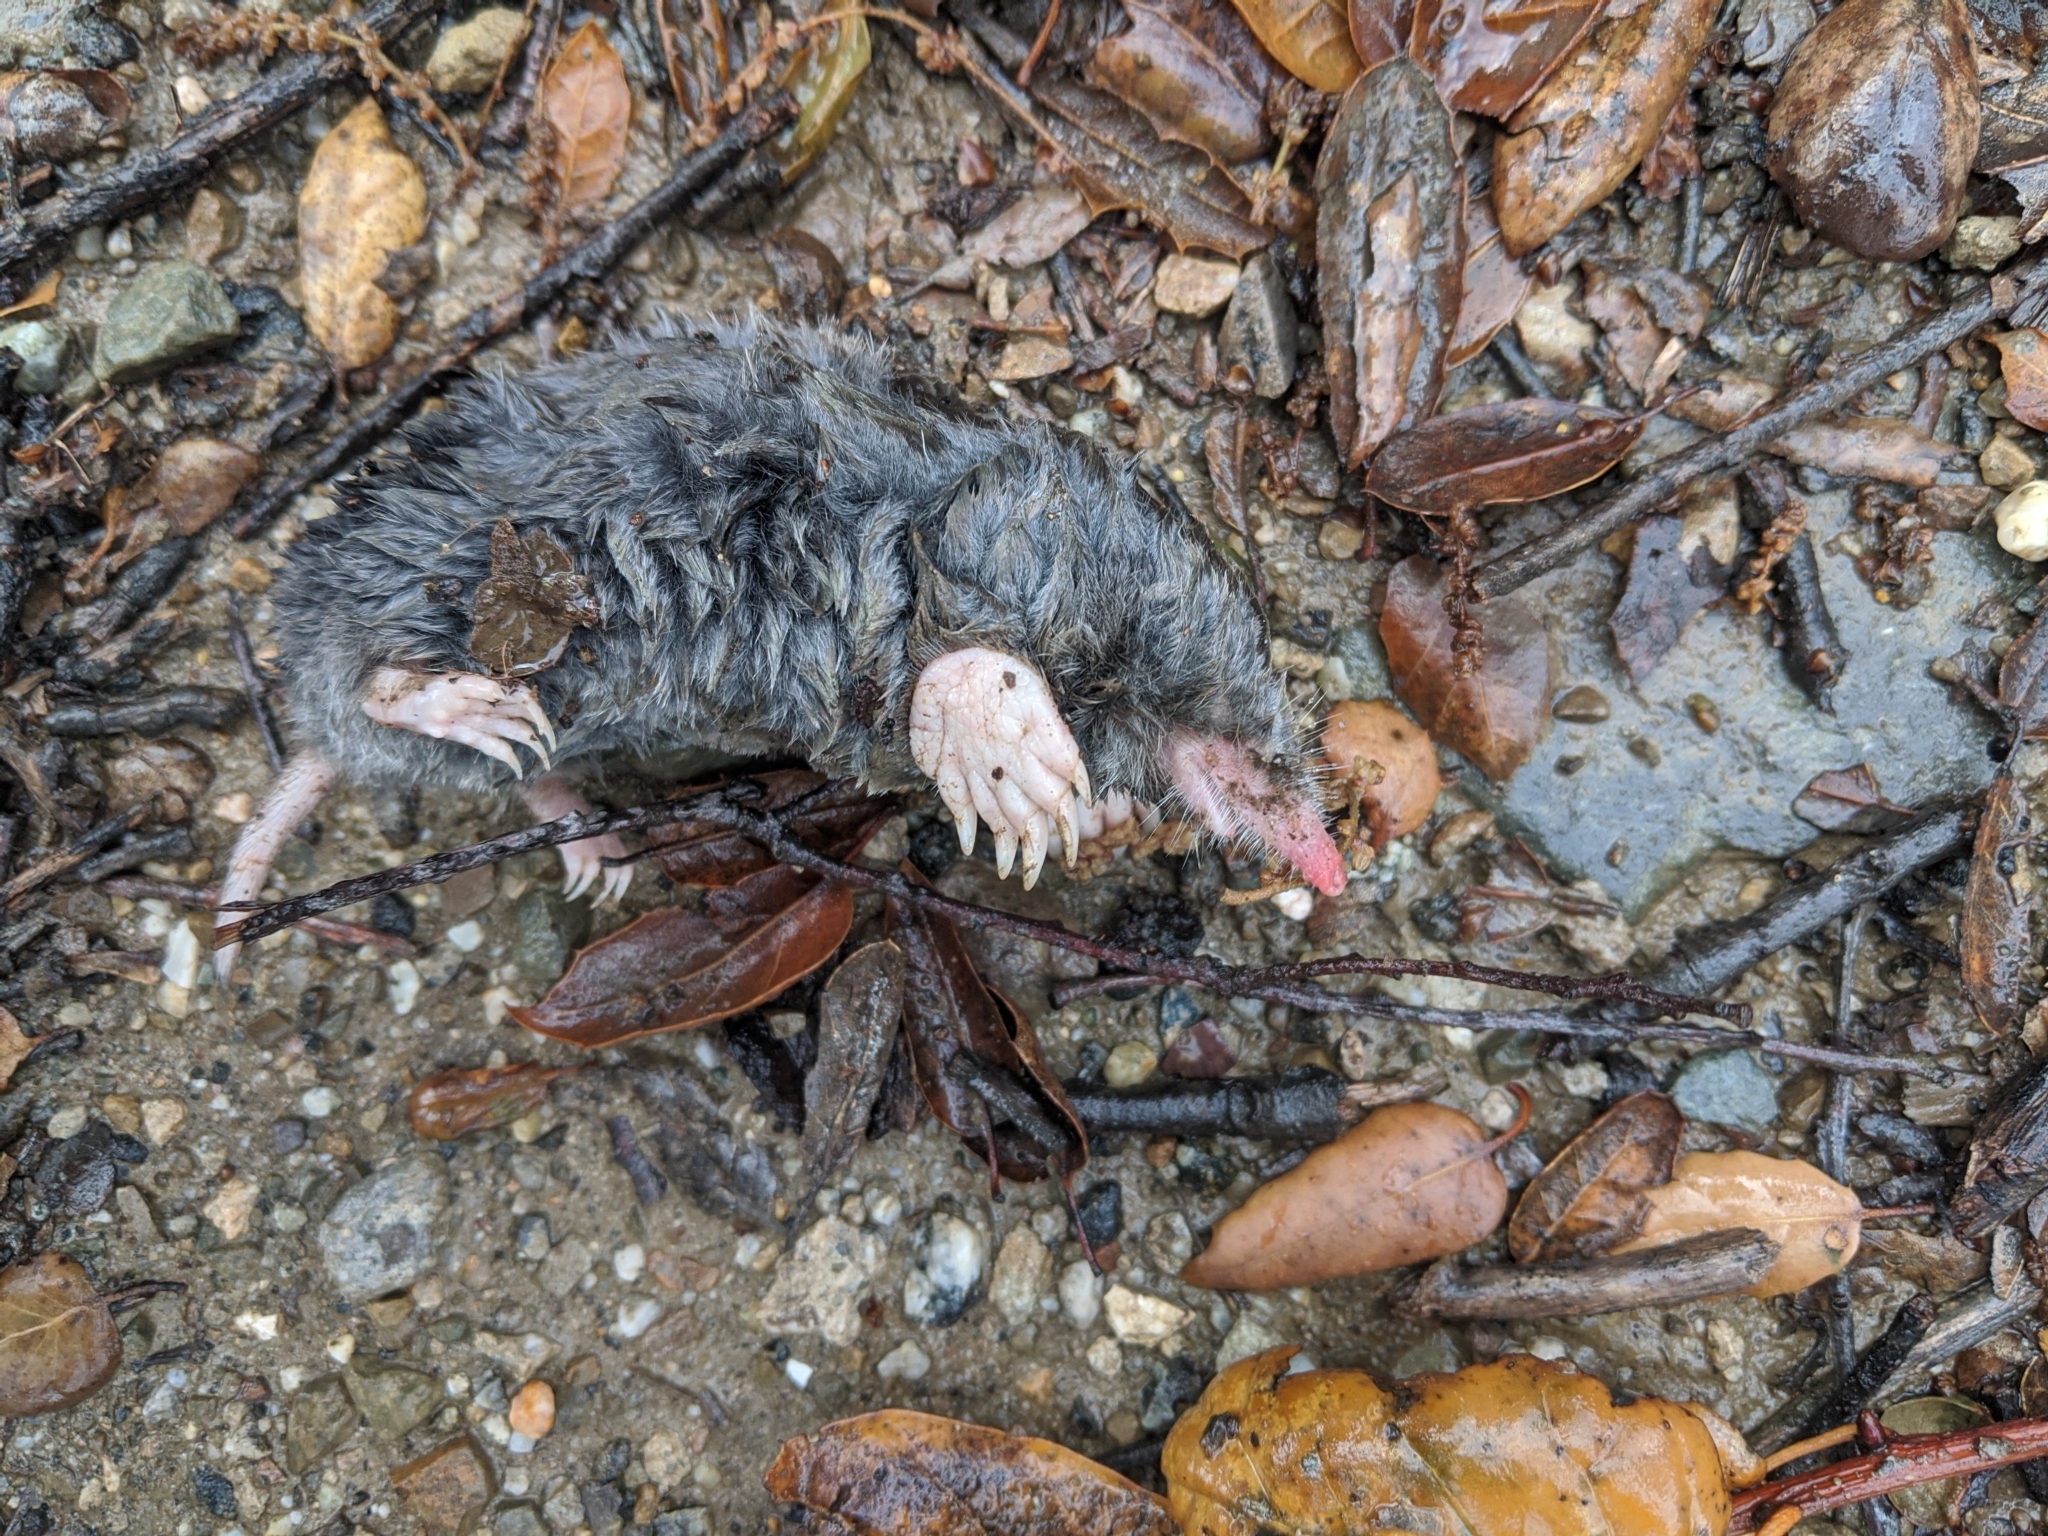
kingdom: Animalia
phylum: Chordata
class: Mammalia
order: Soricomorpha
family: Talpidae
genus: Scapanus
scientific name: Scapanus latimanus
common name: Broad-footed mole
